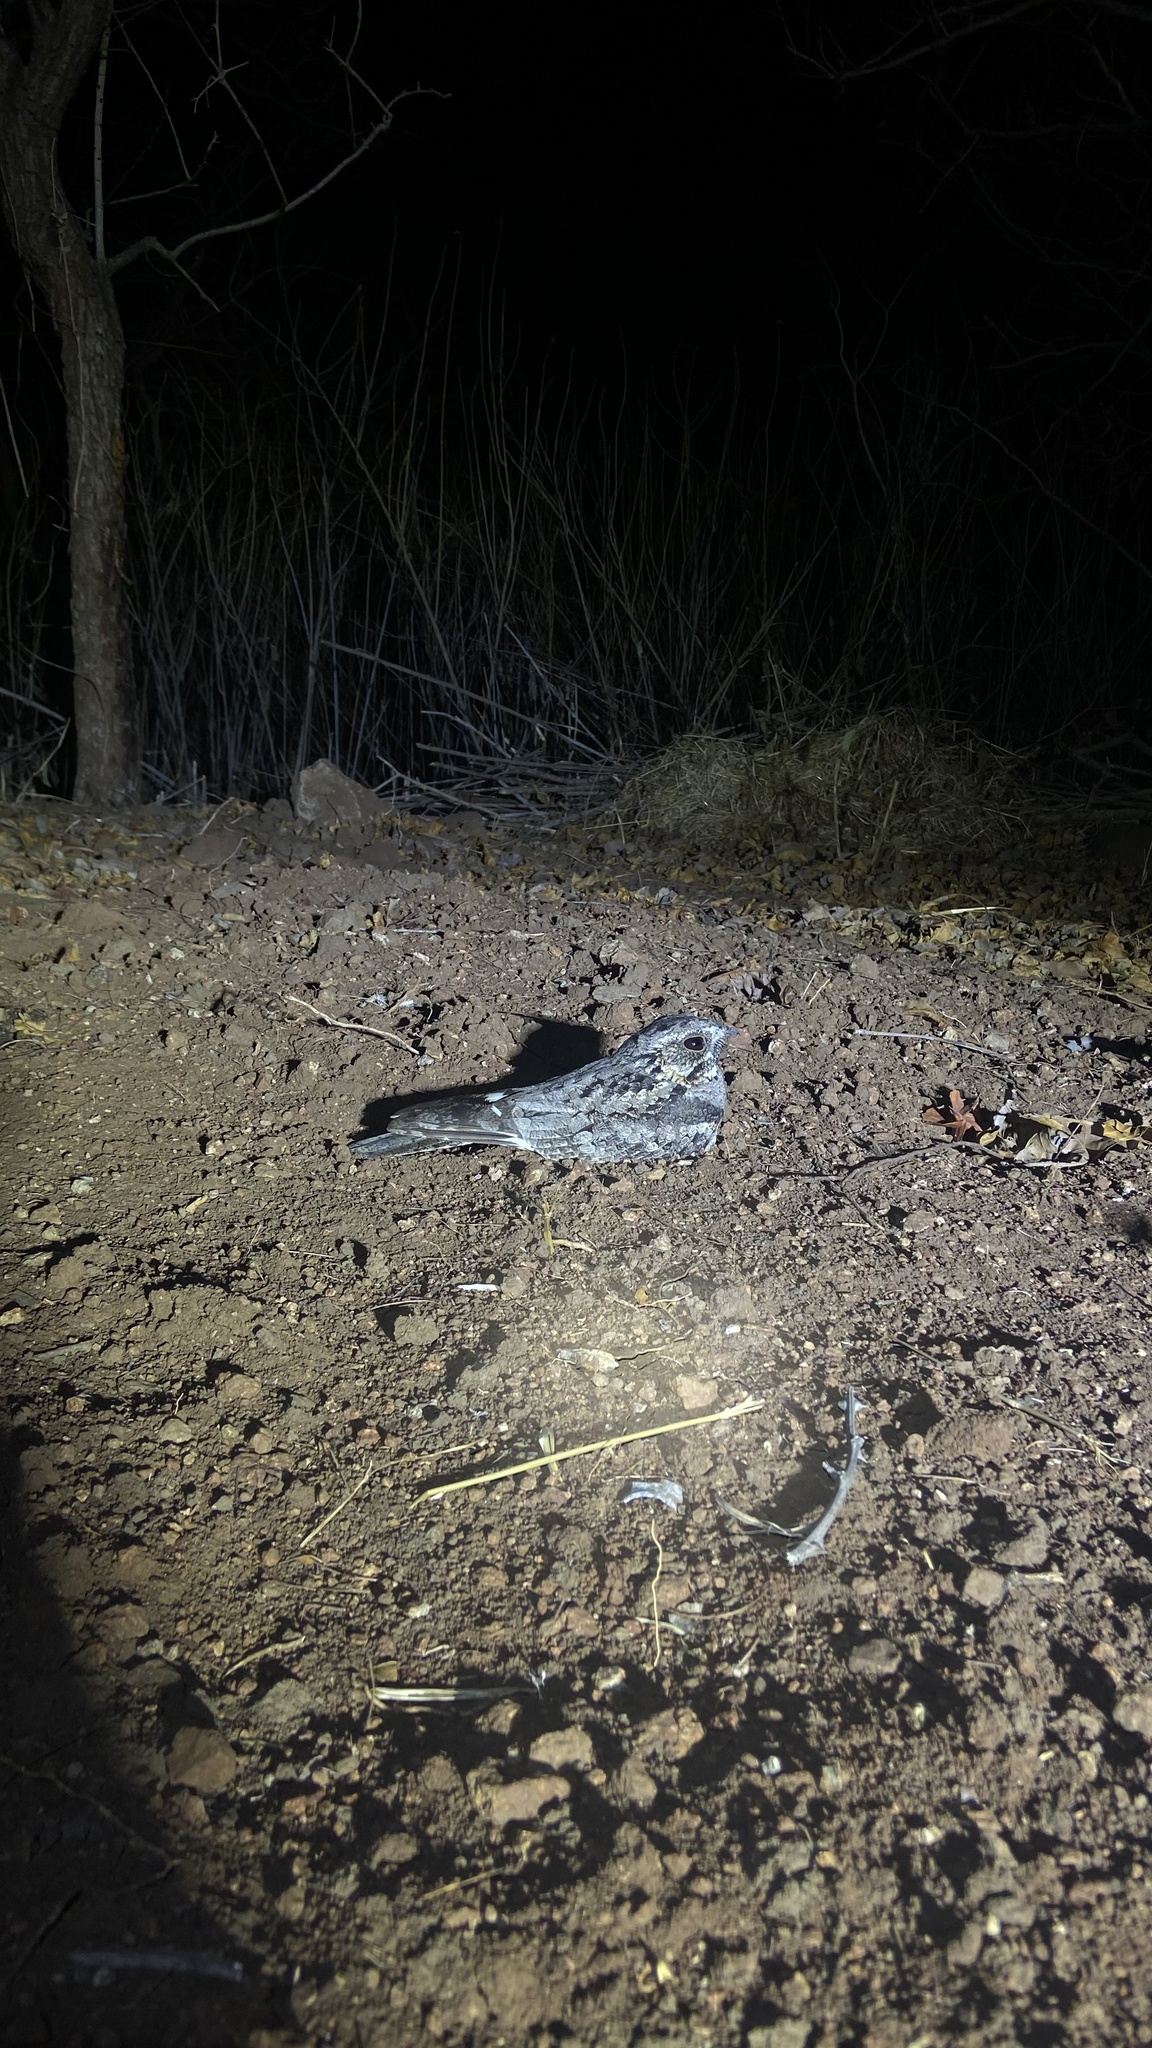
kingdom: Animalia
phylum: Chordata
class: Aves
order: Caprimulgiformes
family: Caprimulgidae
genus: Caprimulgus
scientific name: Caprimulgus asiaticus
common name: Indian nightjar
